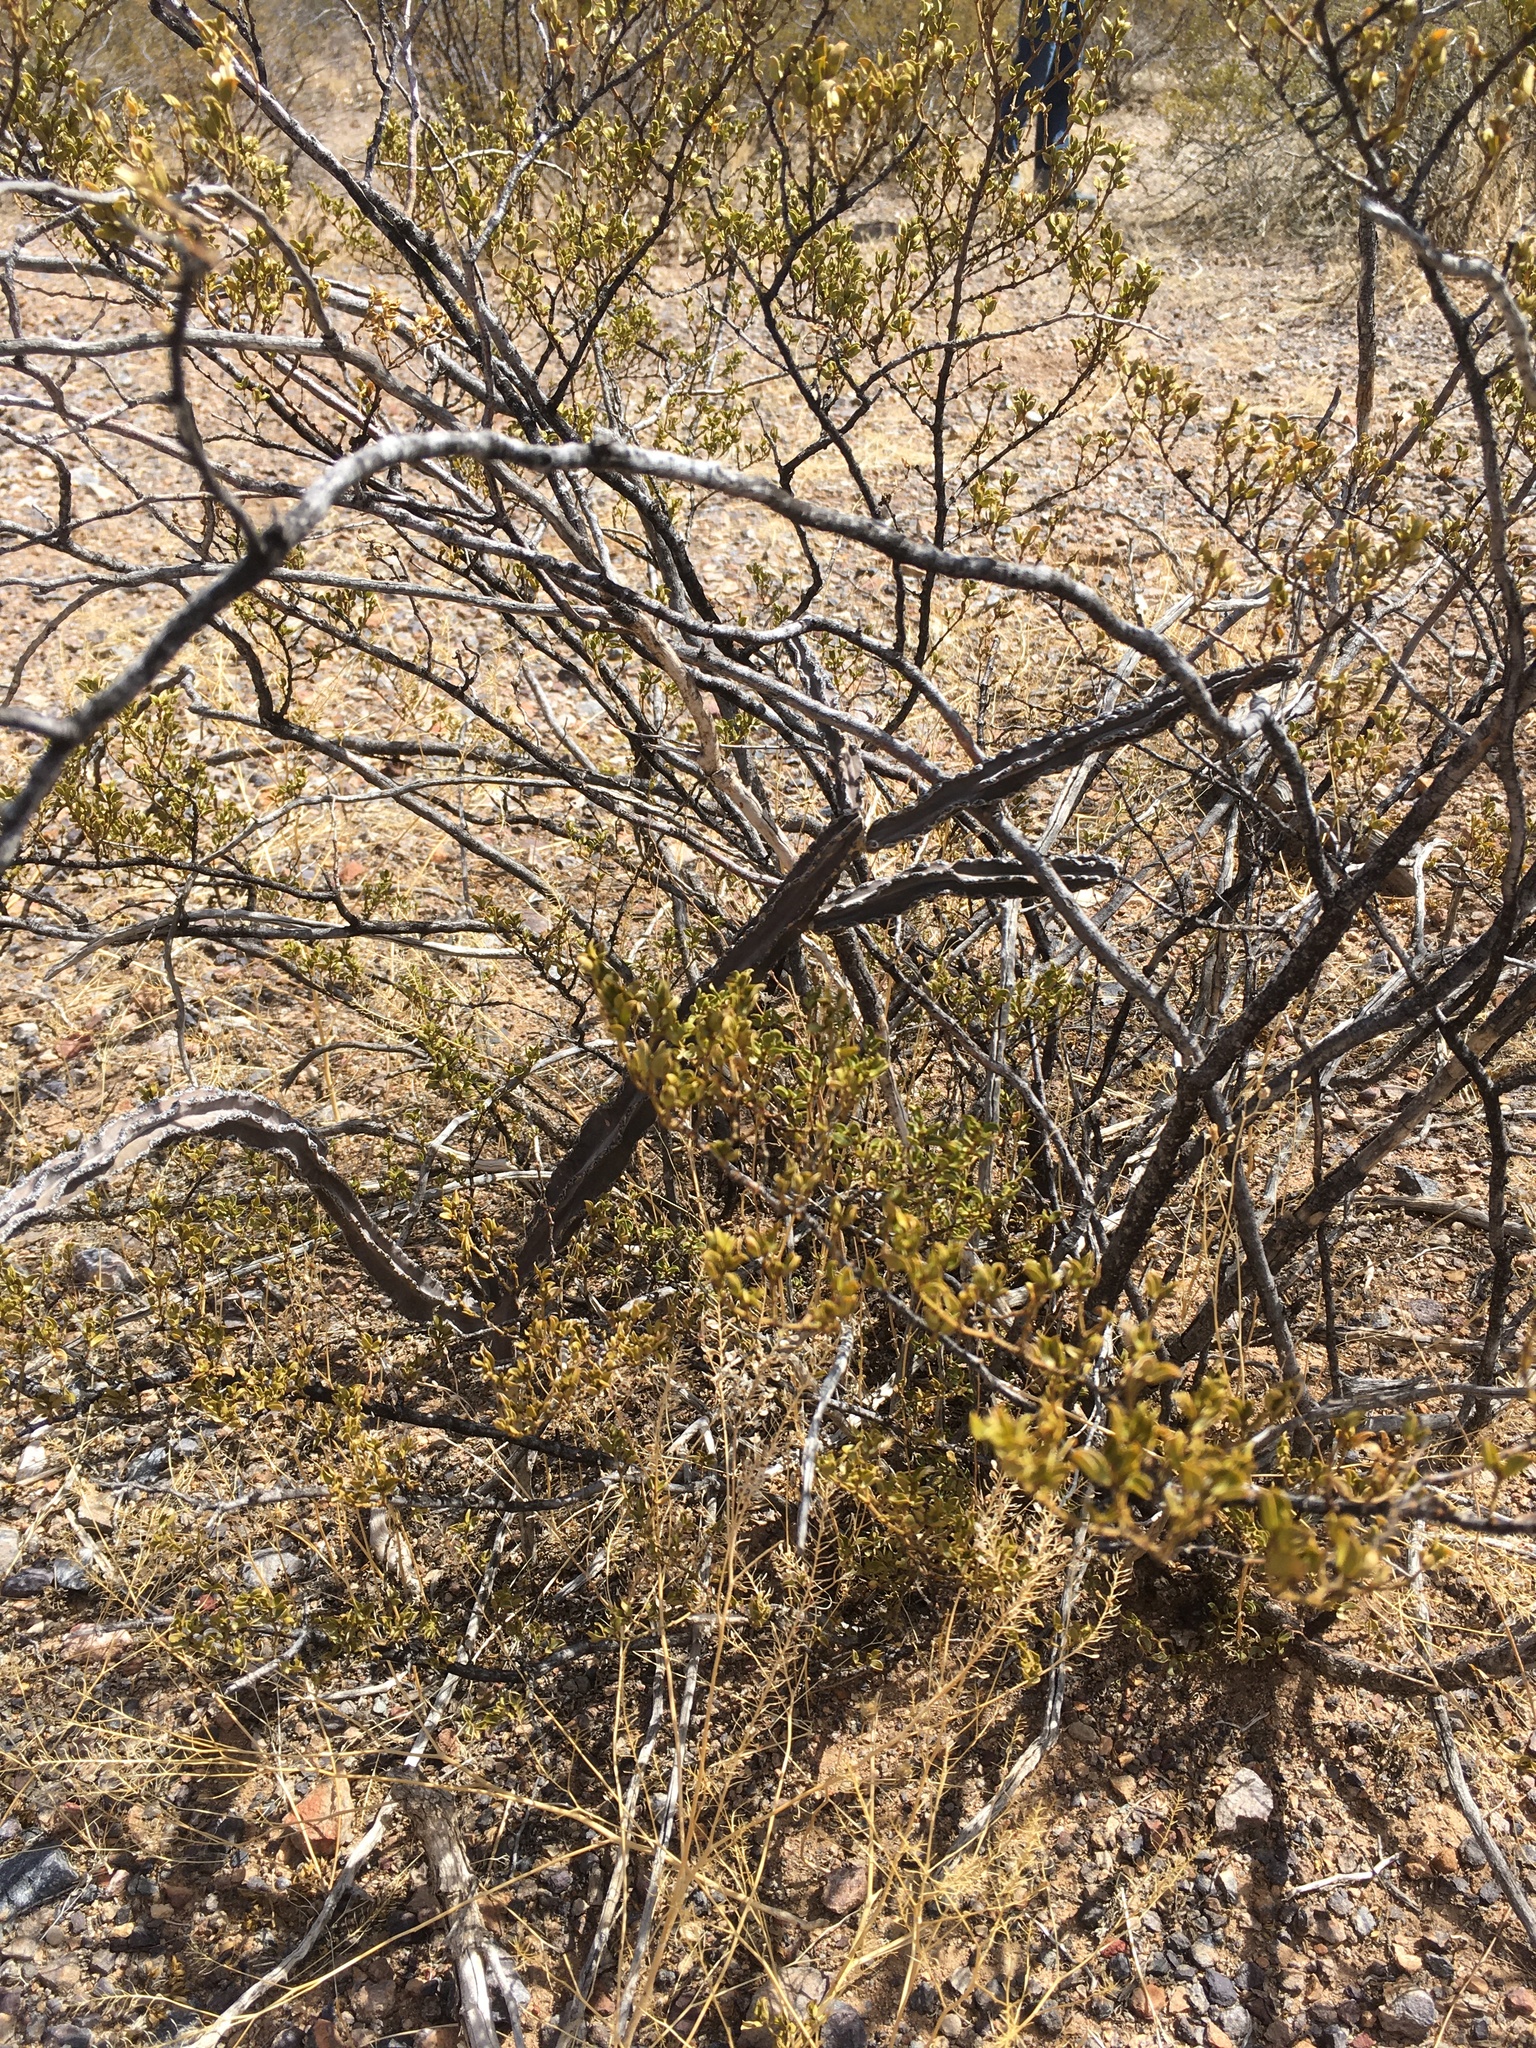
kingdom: Plantae
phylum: Tracheophyta
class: Magnoliopsida
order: Caryophyllales
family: Cactaceae
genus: Peniocereus
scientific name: Peniocereus greggii
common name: Desert night-blooming cereus
